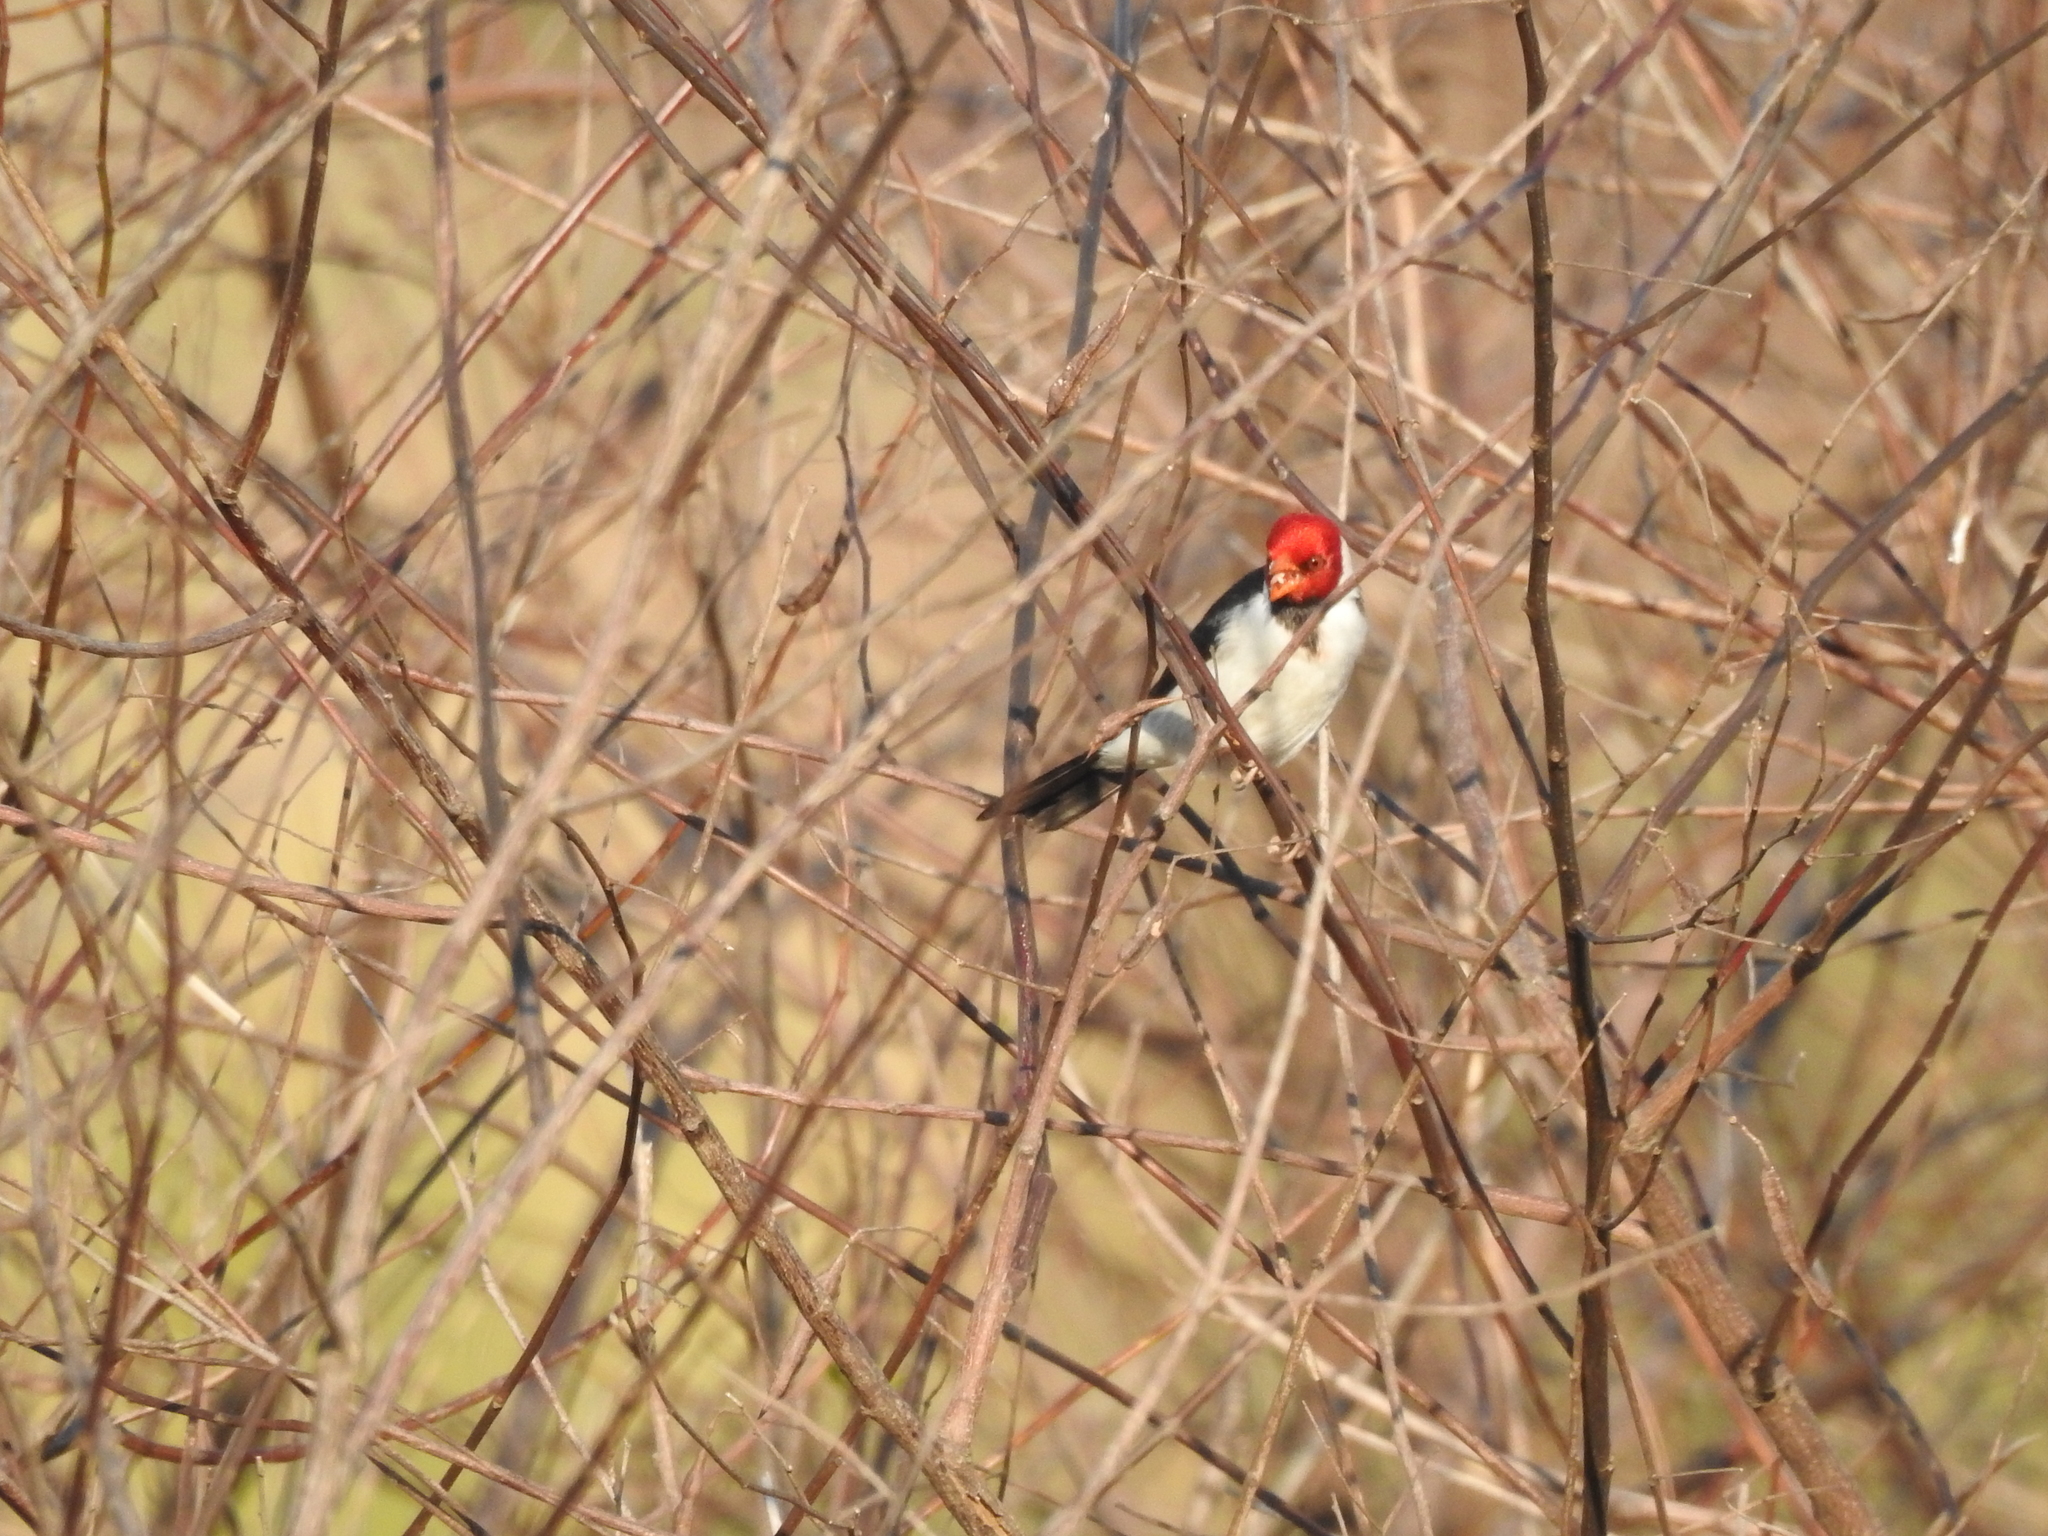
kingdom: Animalia
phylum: Chordata
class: Aves
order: Passeriformes
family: Thraupidae
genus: Paroaria
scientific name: Paroaria capitata
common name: Yellow-billed cardinal
